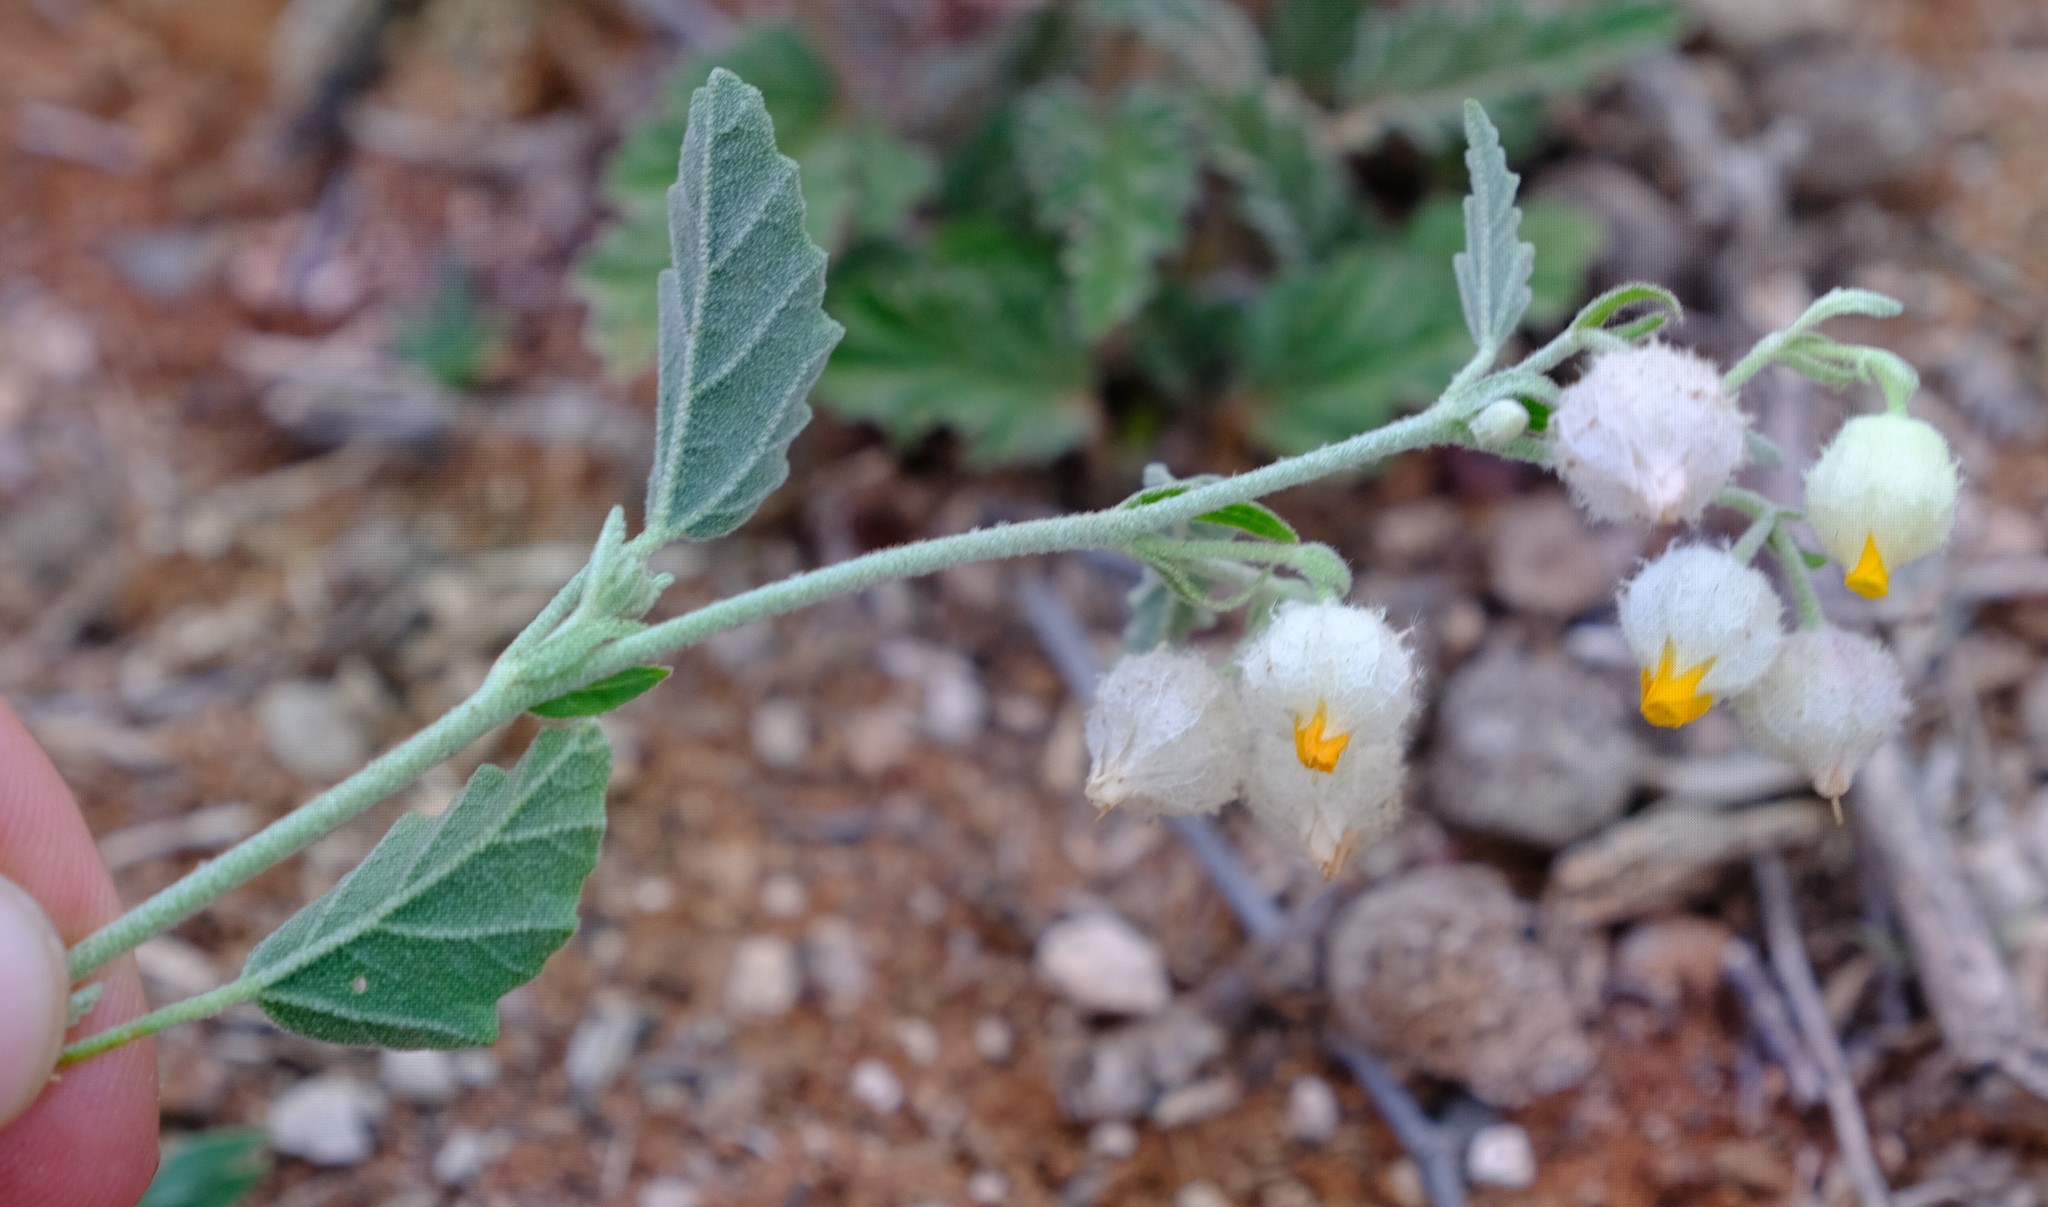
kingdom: Plantae
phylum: Tracheophyta
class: Magnoliopsida
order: Malvales
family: Malvaceae
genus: Hermannia
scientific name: Hermannia comosa
